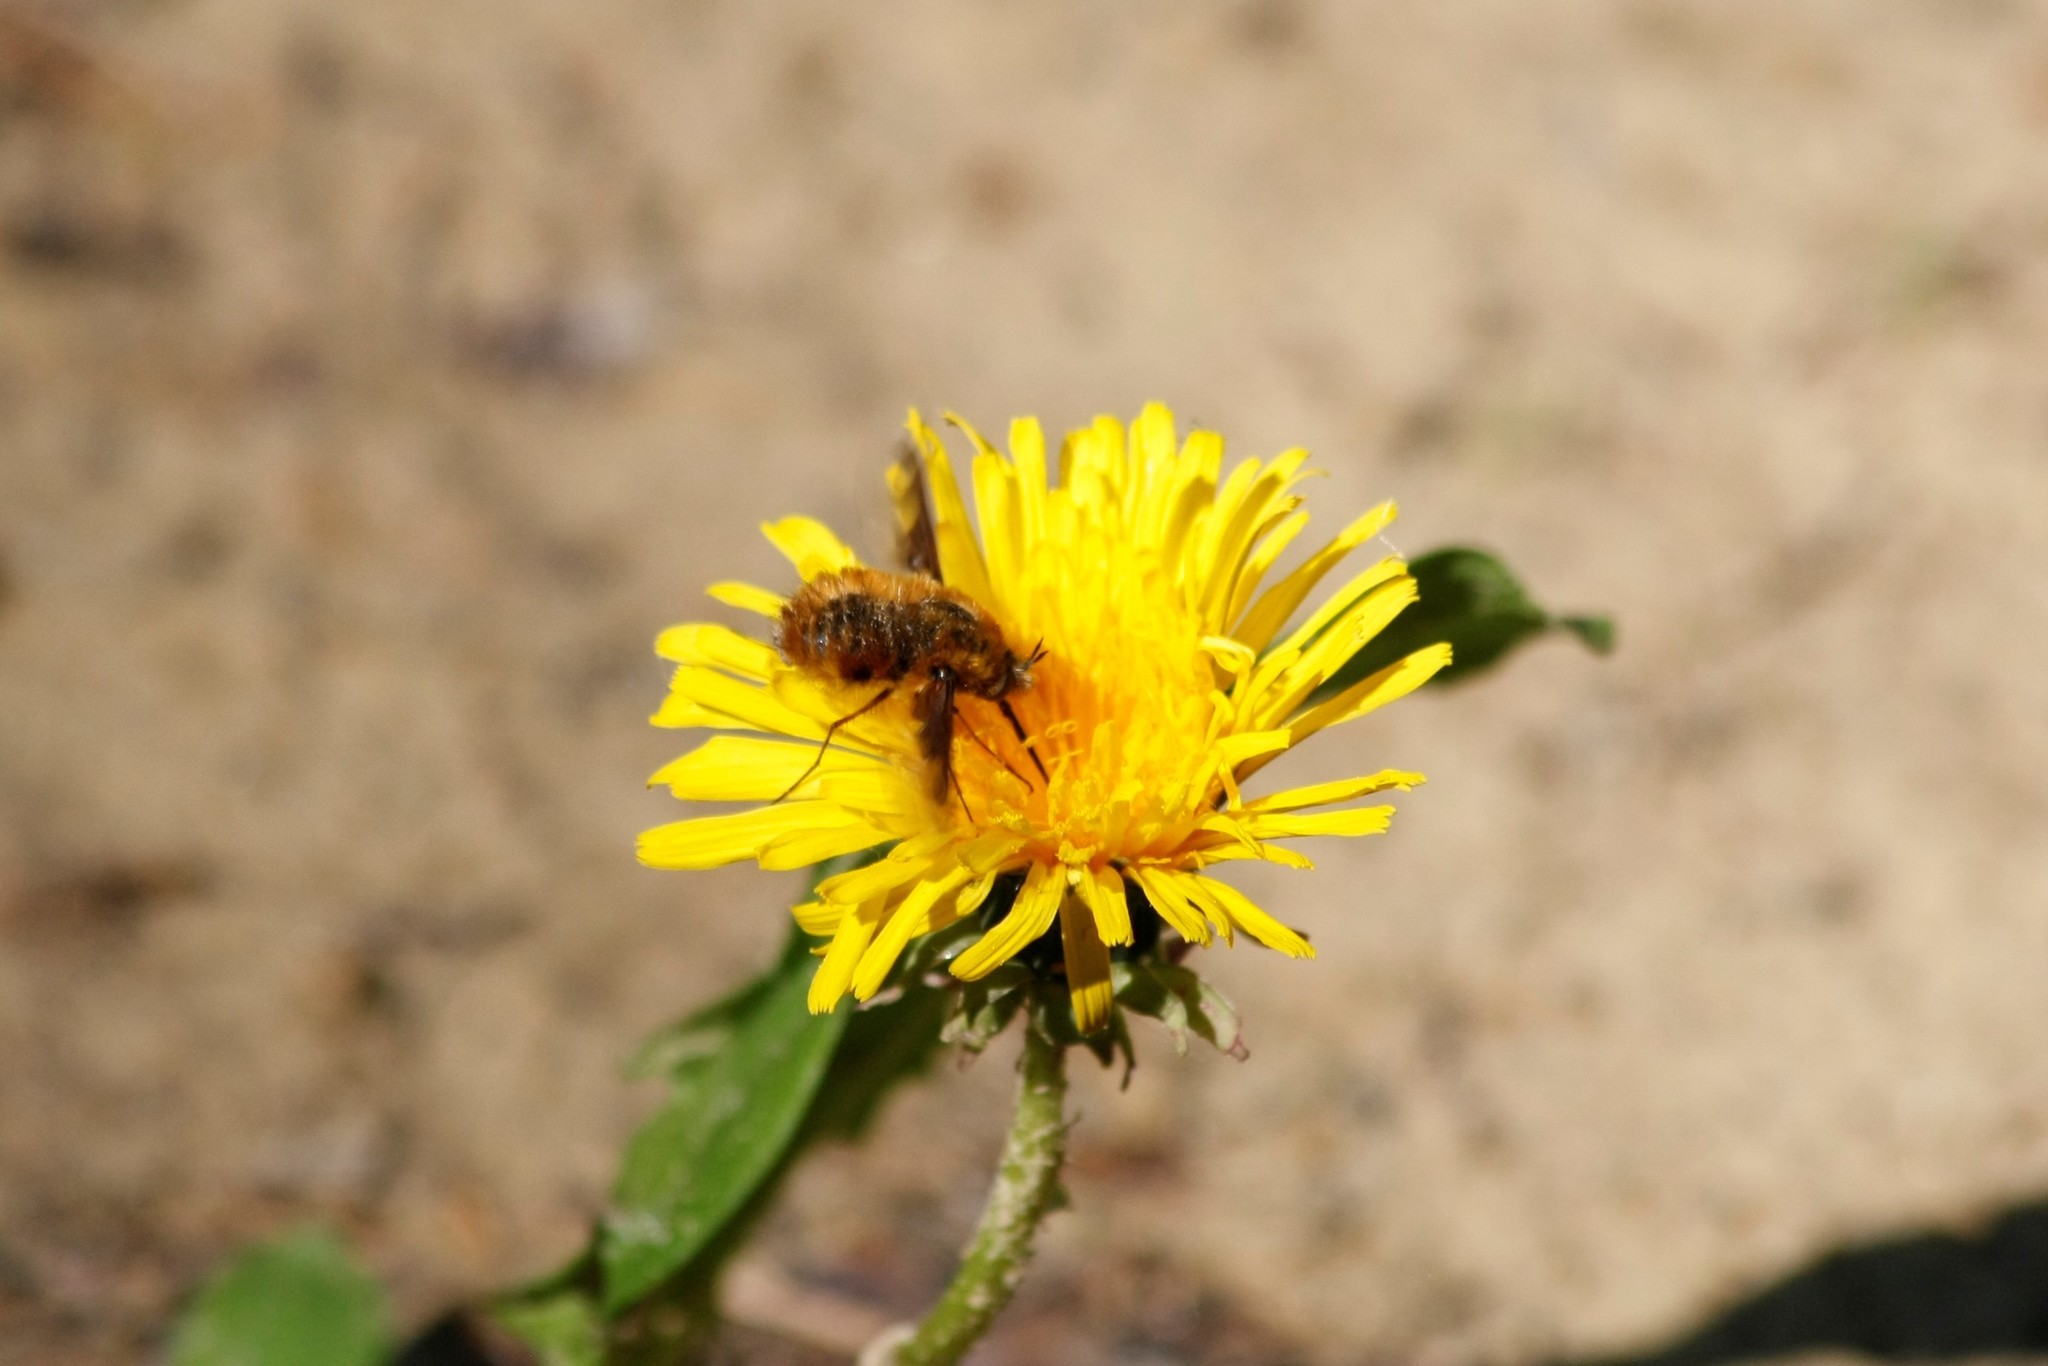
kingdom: Animalia
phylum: Arthropoda
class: Insecta
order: Diptera
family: Bombyliidae
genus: Bombylius
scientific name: Bombylius major
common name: Bee fly
